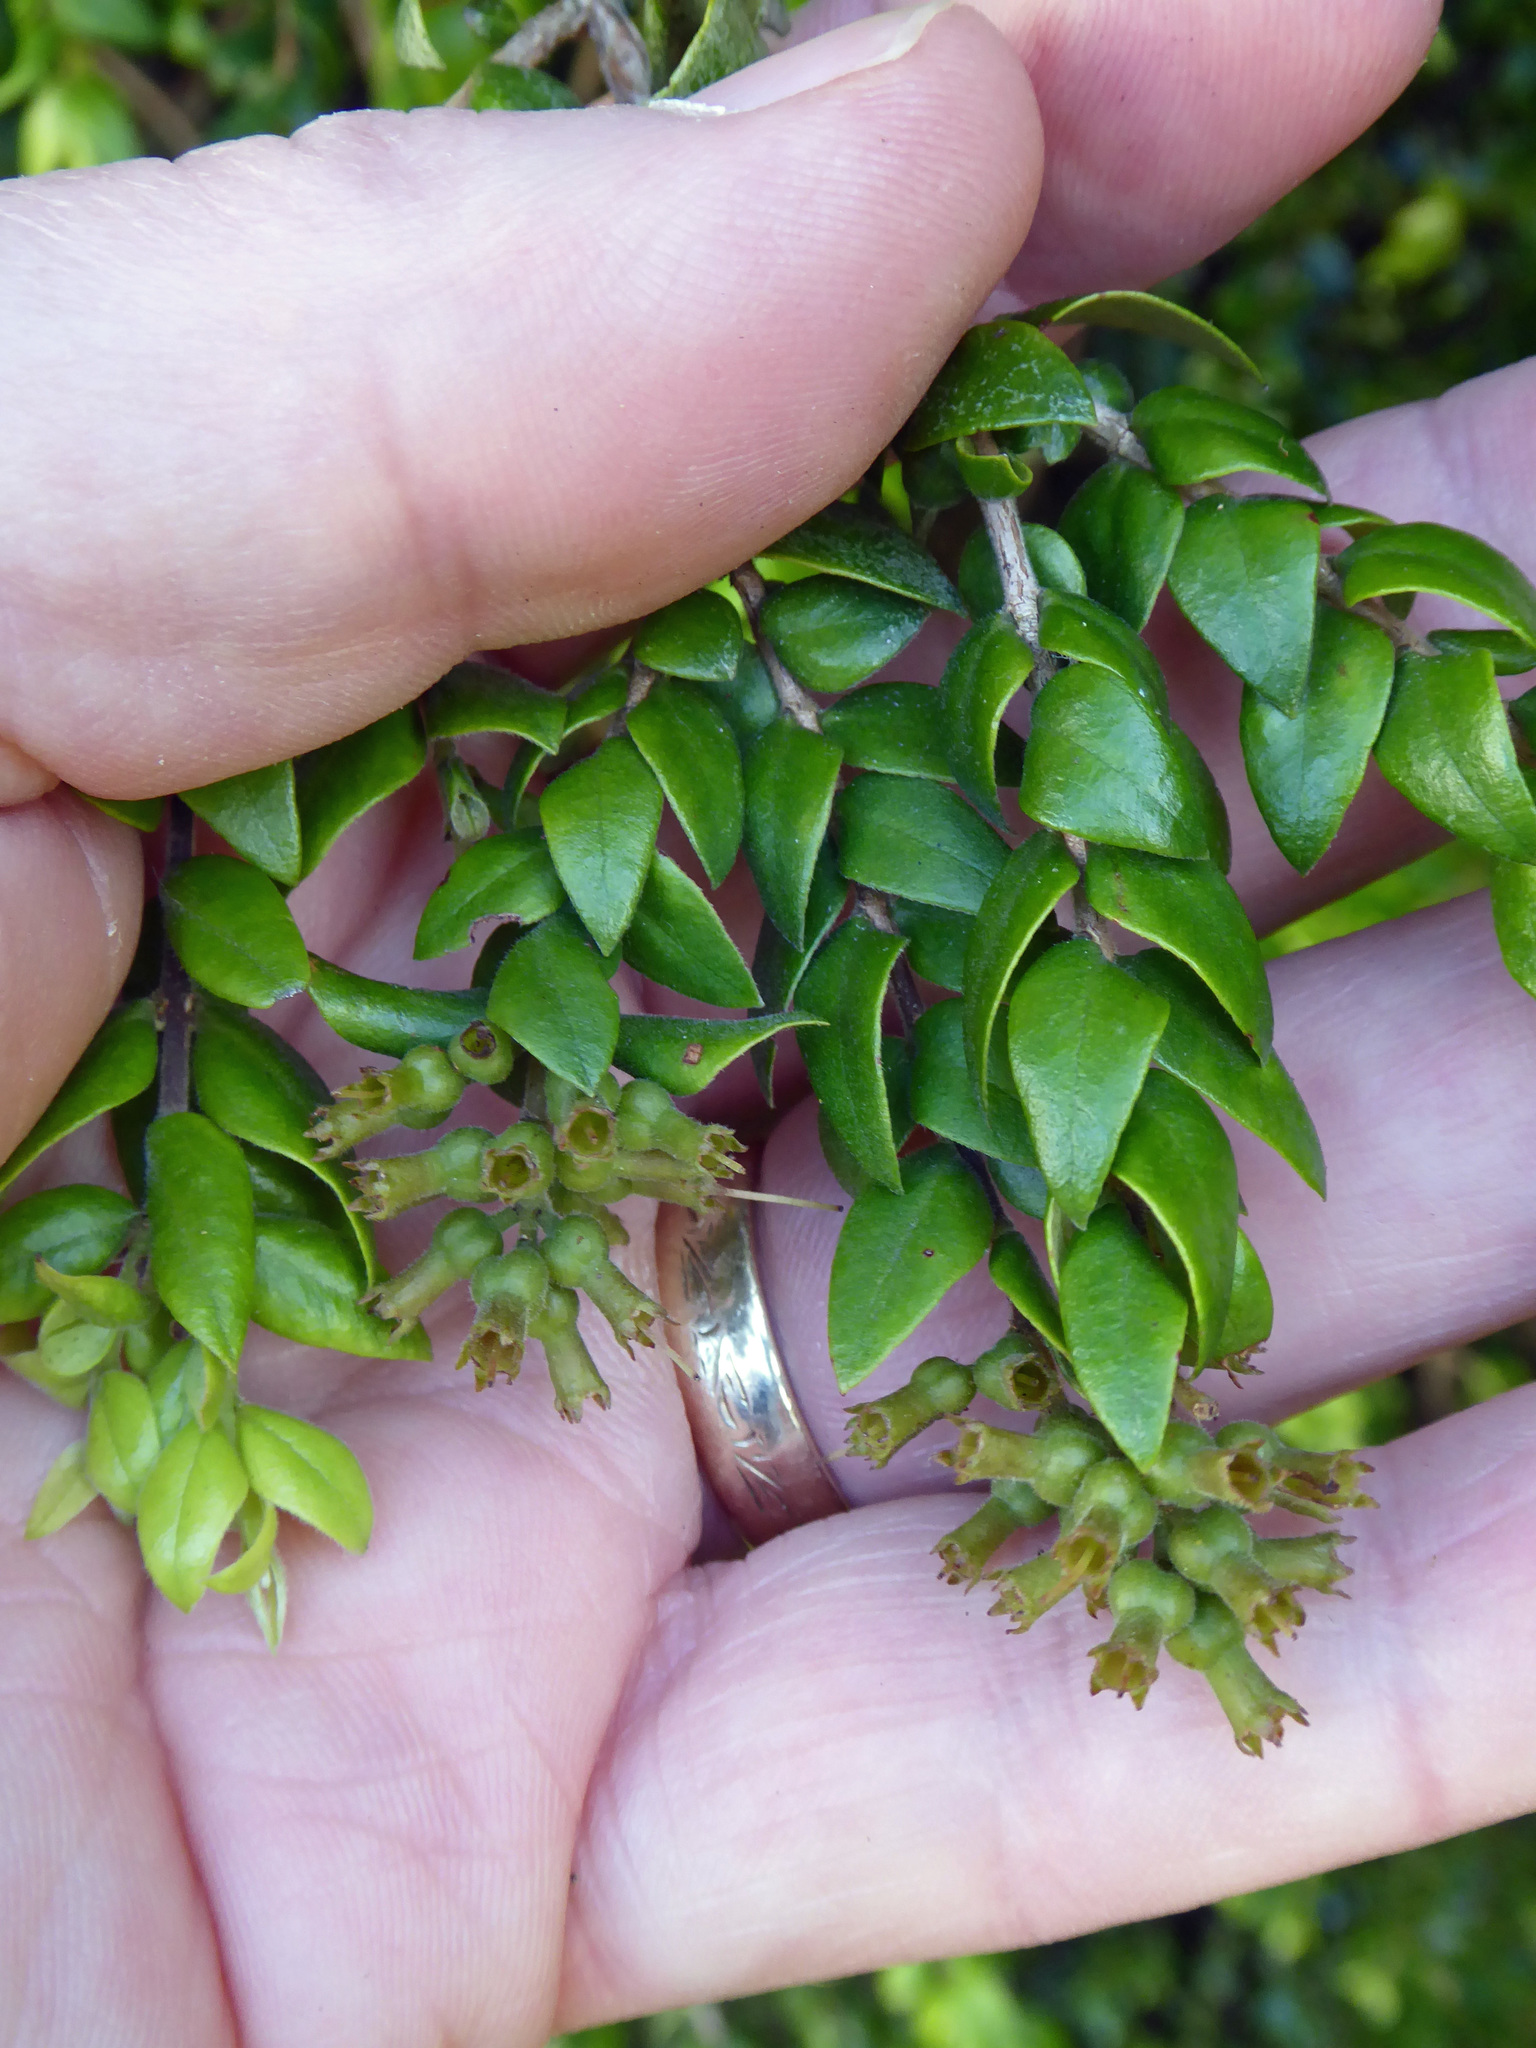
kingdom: Plantae
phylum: Tracheophyta
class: Magnoliopsida
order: Myrtales
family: Myrtaceae
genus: Metrosideros
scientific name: Metrosideros colensoi
